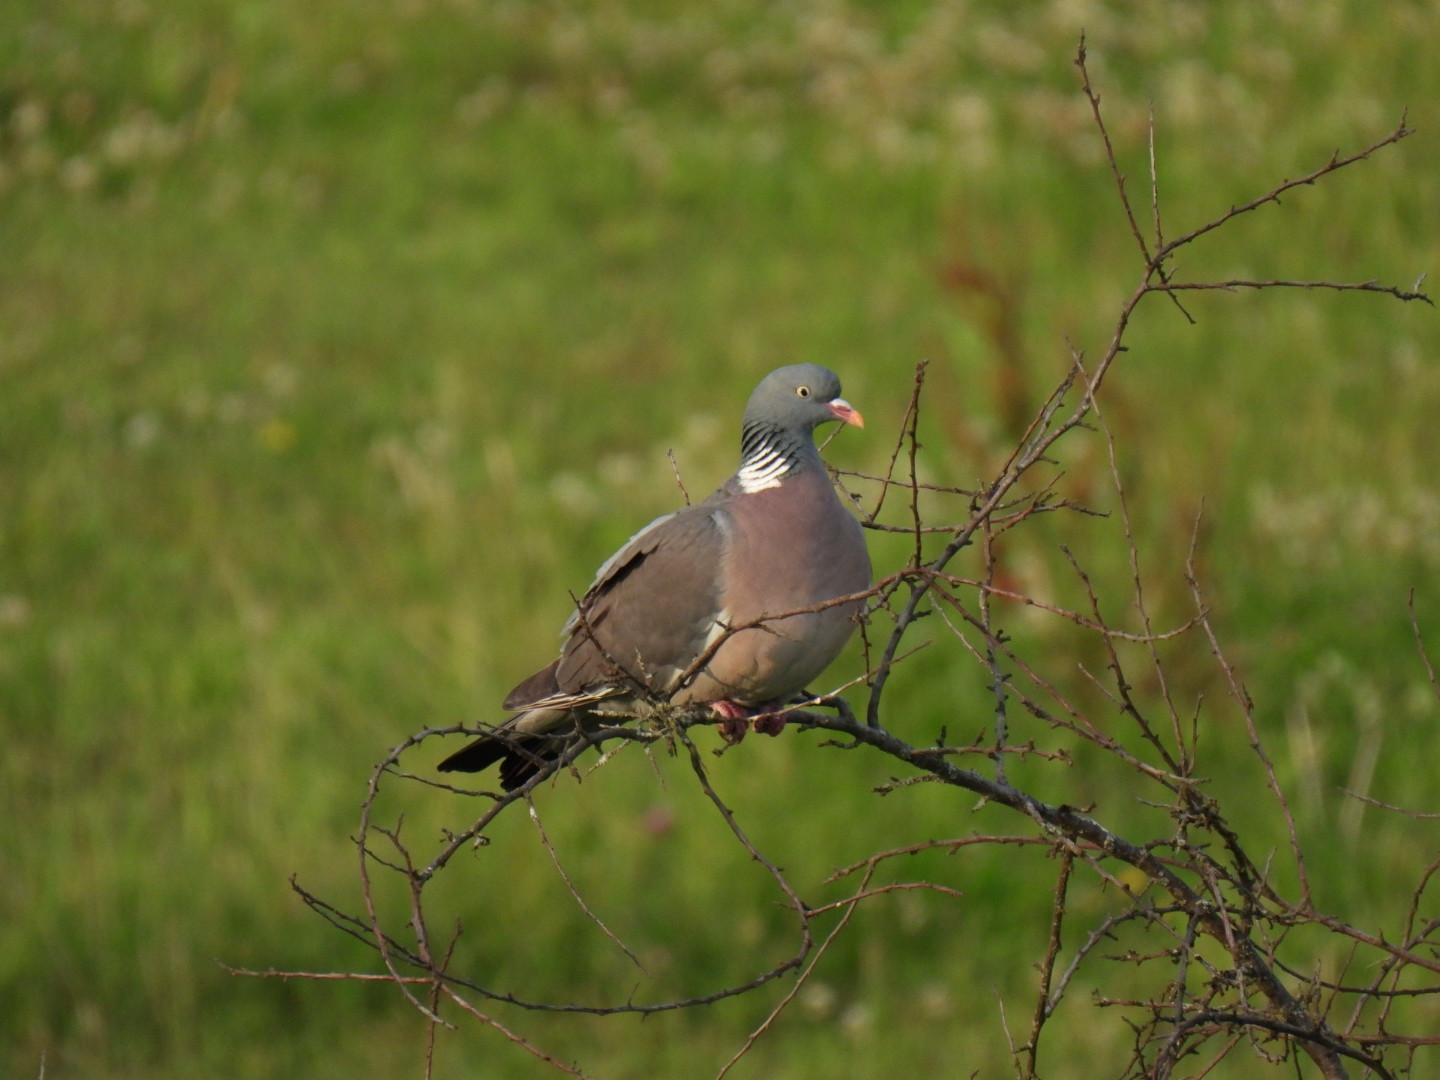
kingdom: Animalia
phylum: Chordata
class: Aves
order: Columbiformes
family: Columbidae
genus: Columba
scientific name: Columba palumbus
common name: Common wood pigeon
